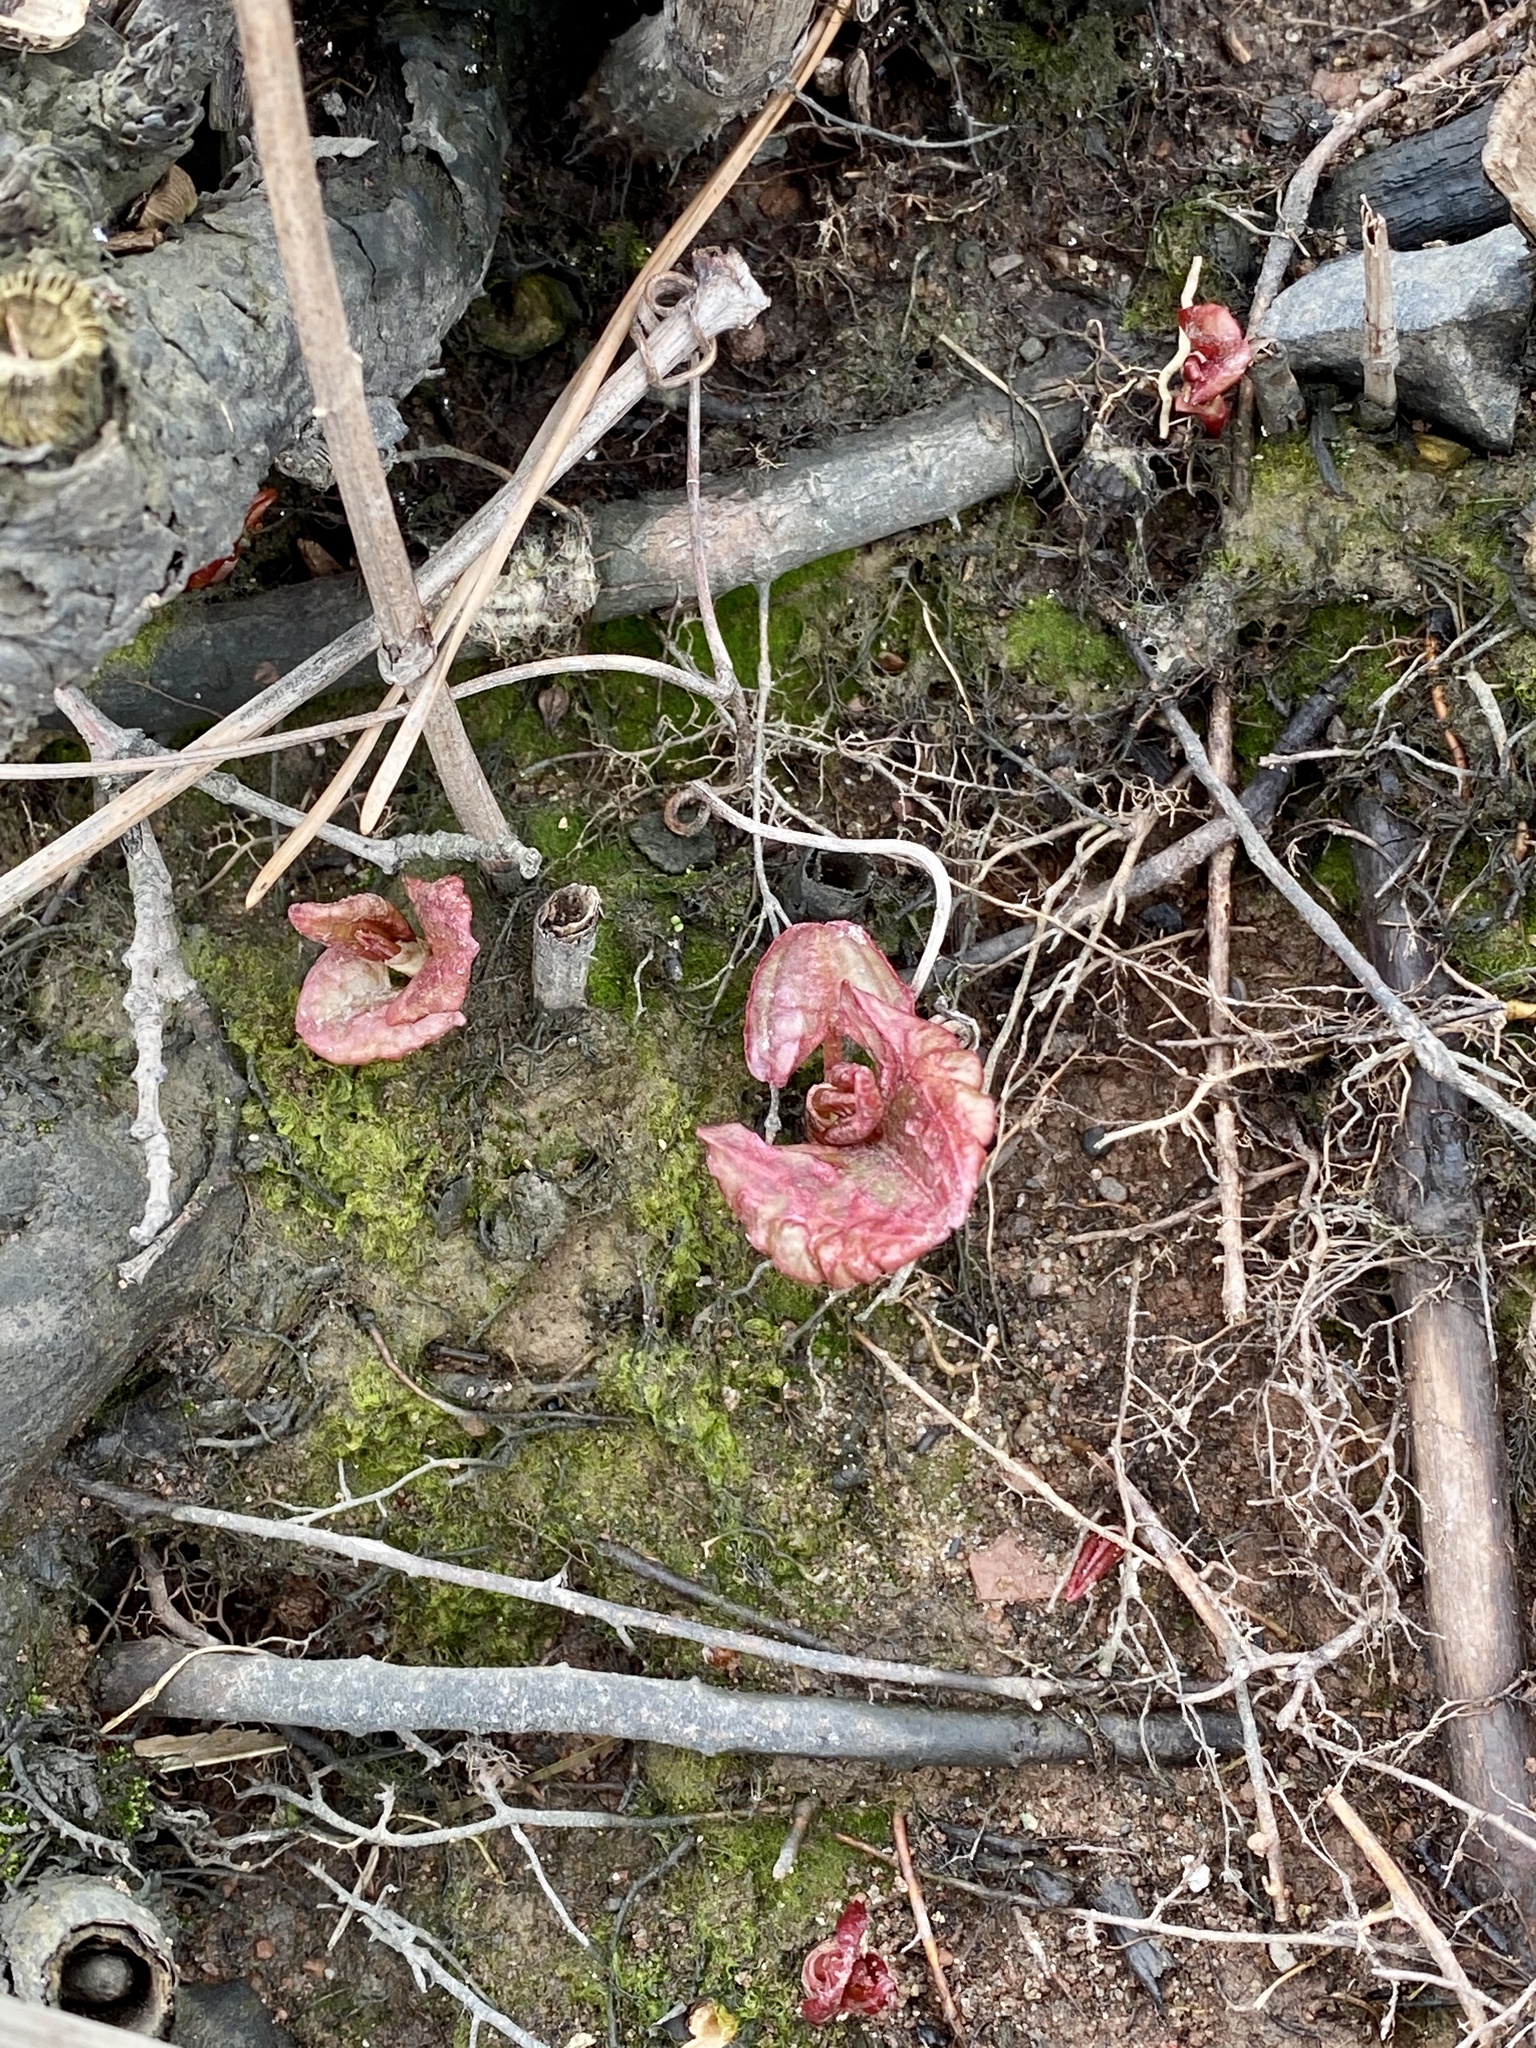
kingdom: Plantae
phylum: Tracheophyta
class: Magnoliopsida
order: Caryophyllales
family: Polygonaceae
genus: Reynoutria
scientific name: Reynoutria japonica
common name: Japanese knotweed
